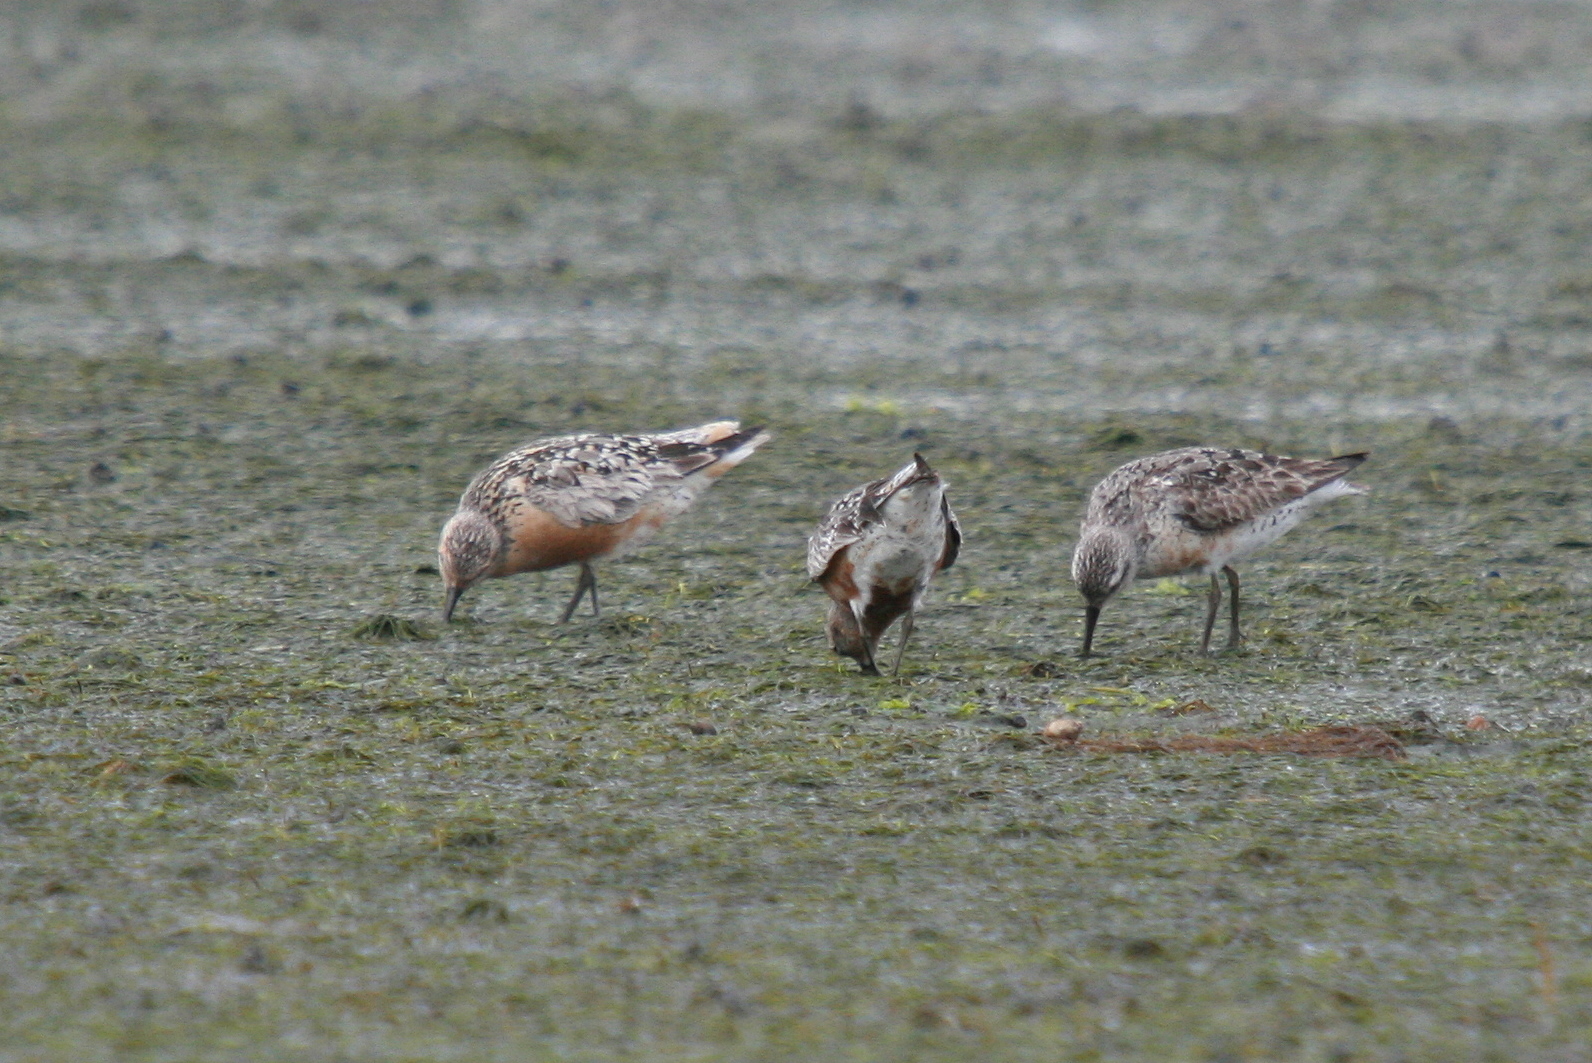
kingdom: Animalia
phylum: Chordata
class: Aves
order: Charadriiformes
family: Scolopacidae
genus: Calidris
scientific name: Calidris canutus
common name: Red knot
